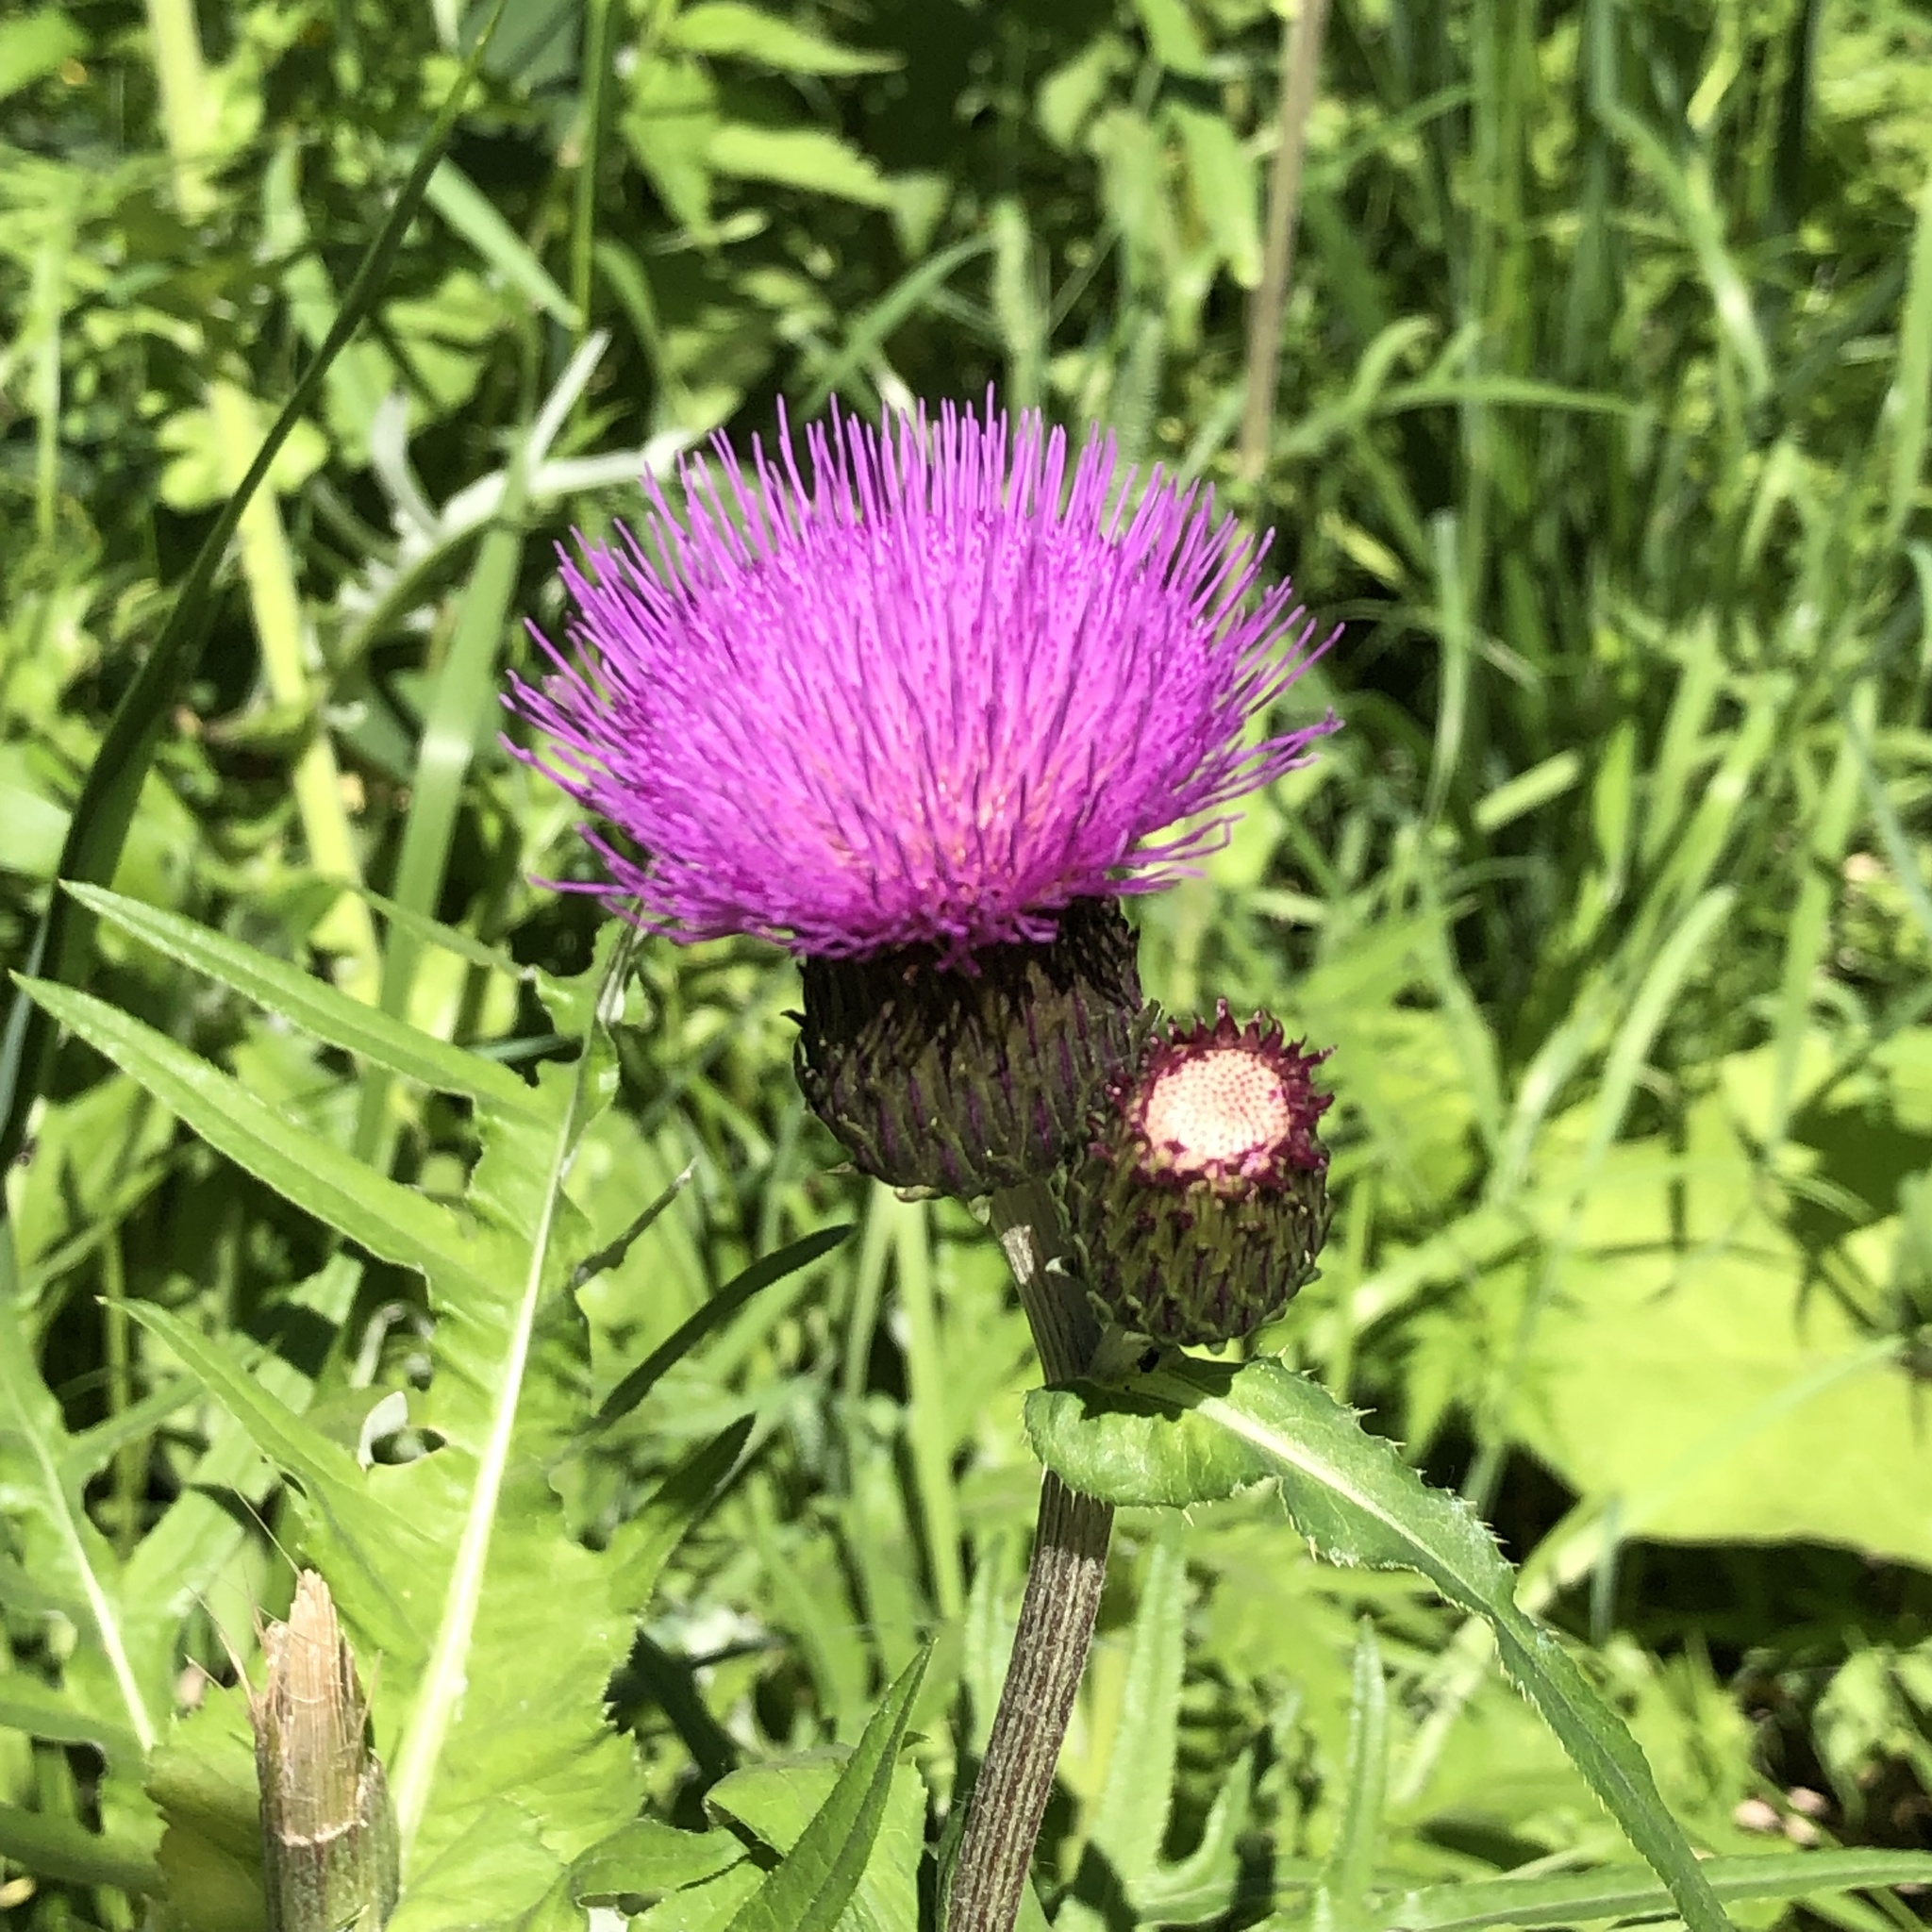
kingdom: Plantae
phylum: Tracheophyta
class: Magnoliopsida
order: Asterales
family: Asteraceae
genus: Cirsium
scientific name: Cirsium heterophyllum
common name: Melancholy thistle
